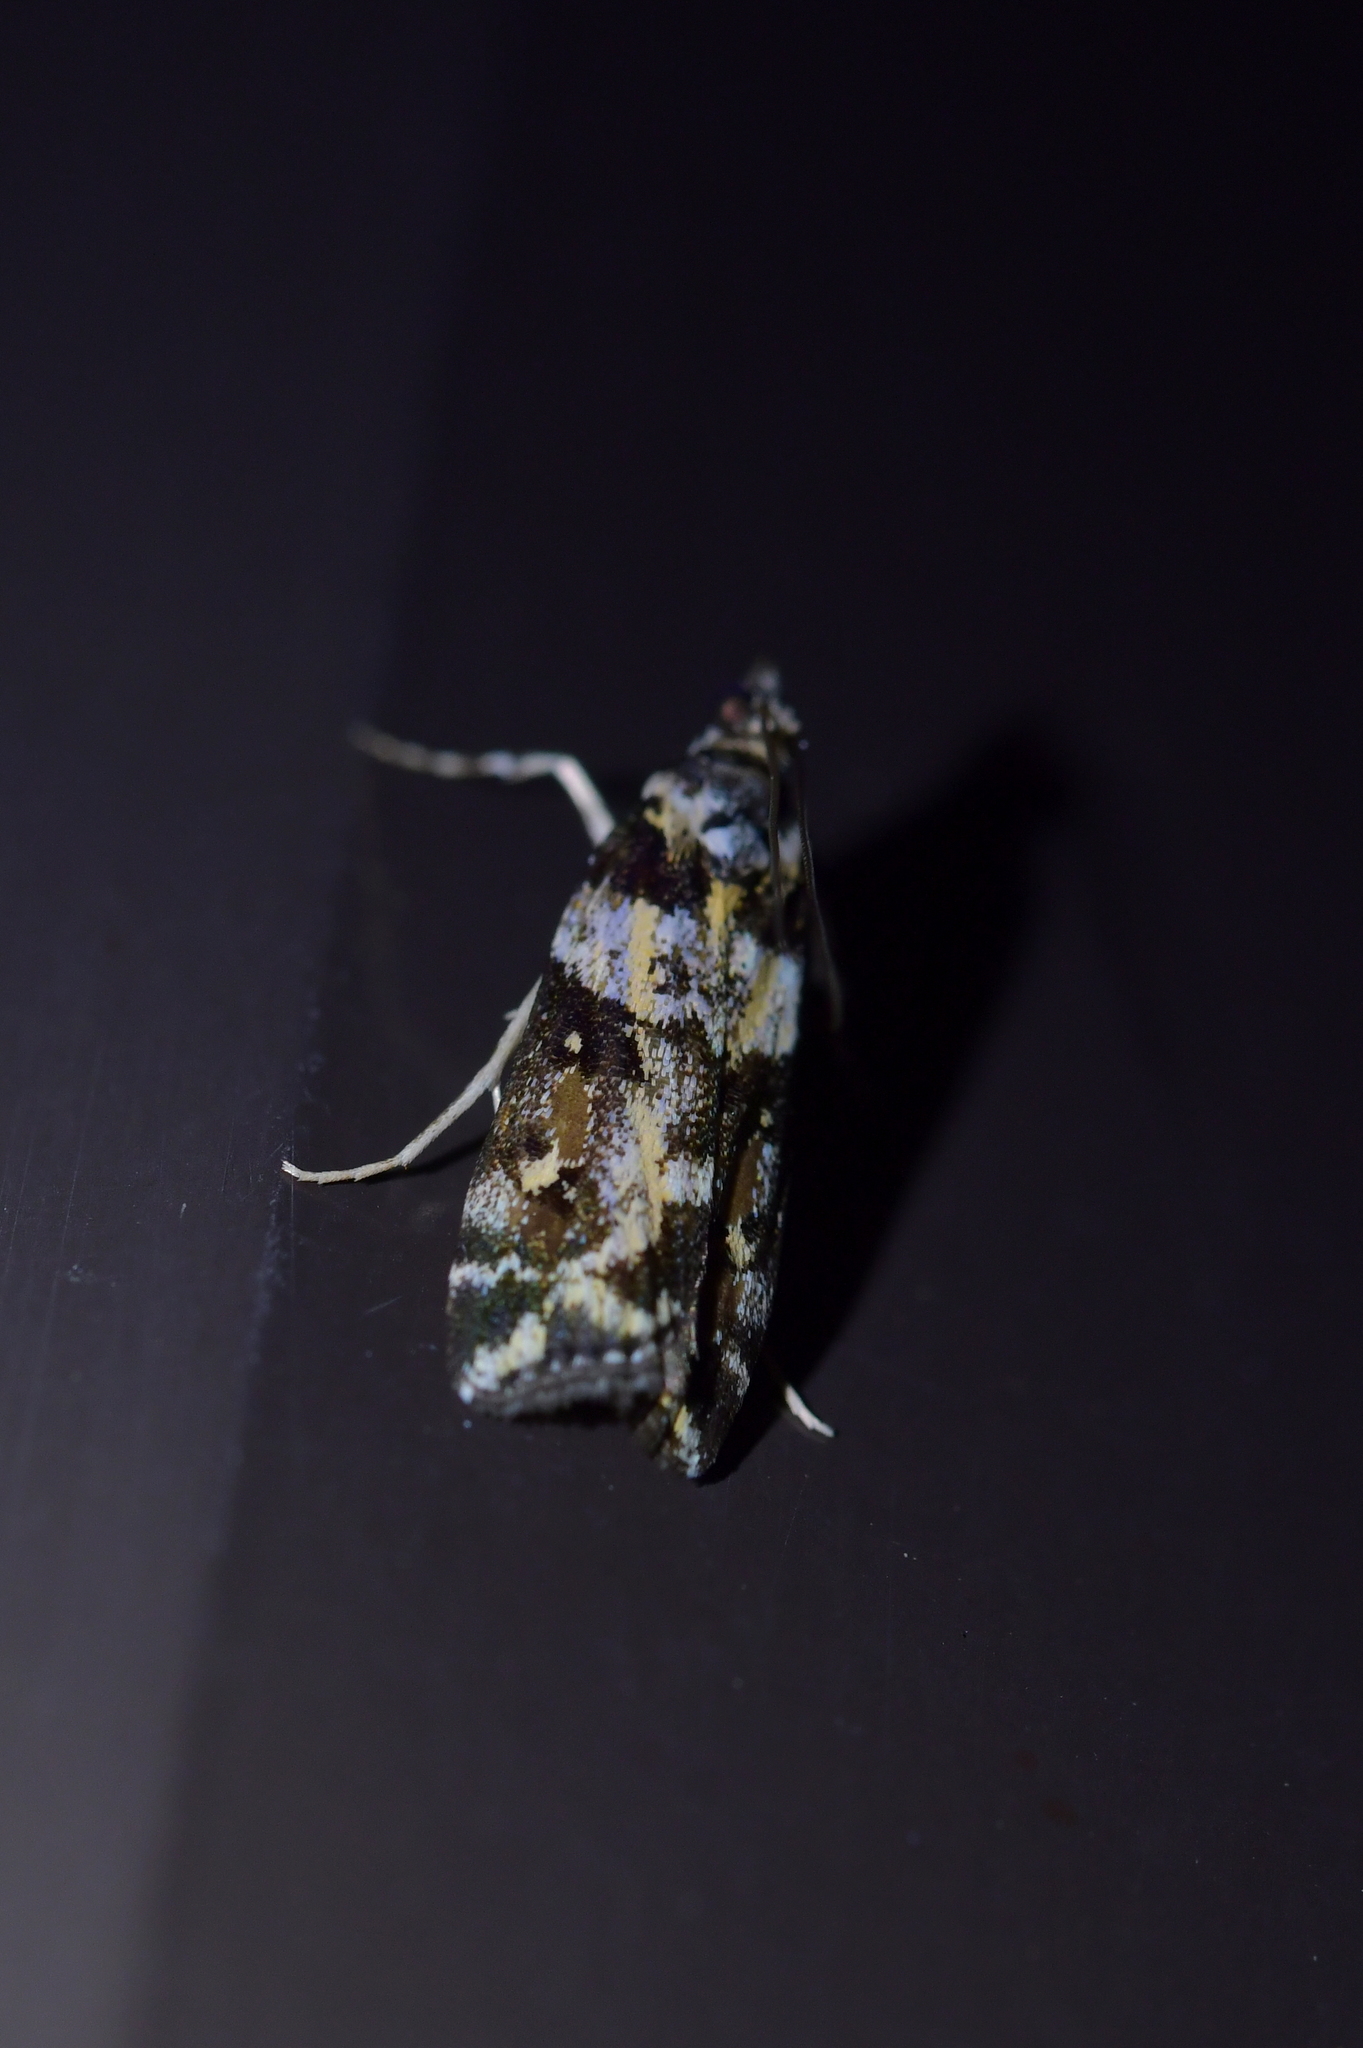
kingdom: Animalia
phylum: Arthropoda
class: Insecta
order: Lepidoptera
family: Crambidae
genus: Eudonia
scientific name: Eudonia diphtheralis
